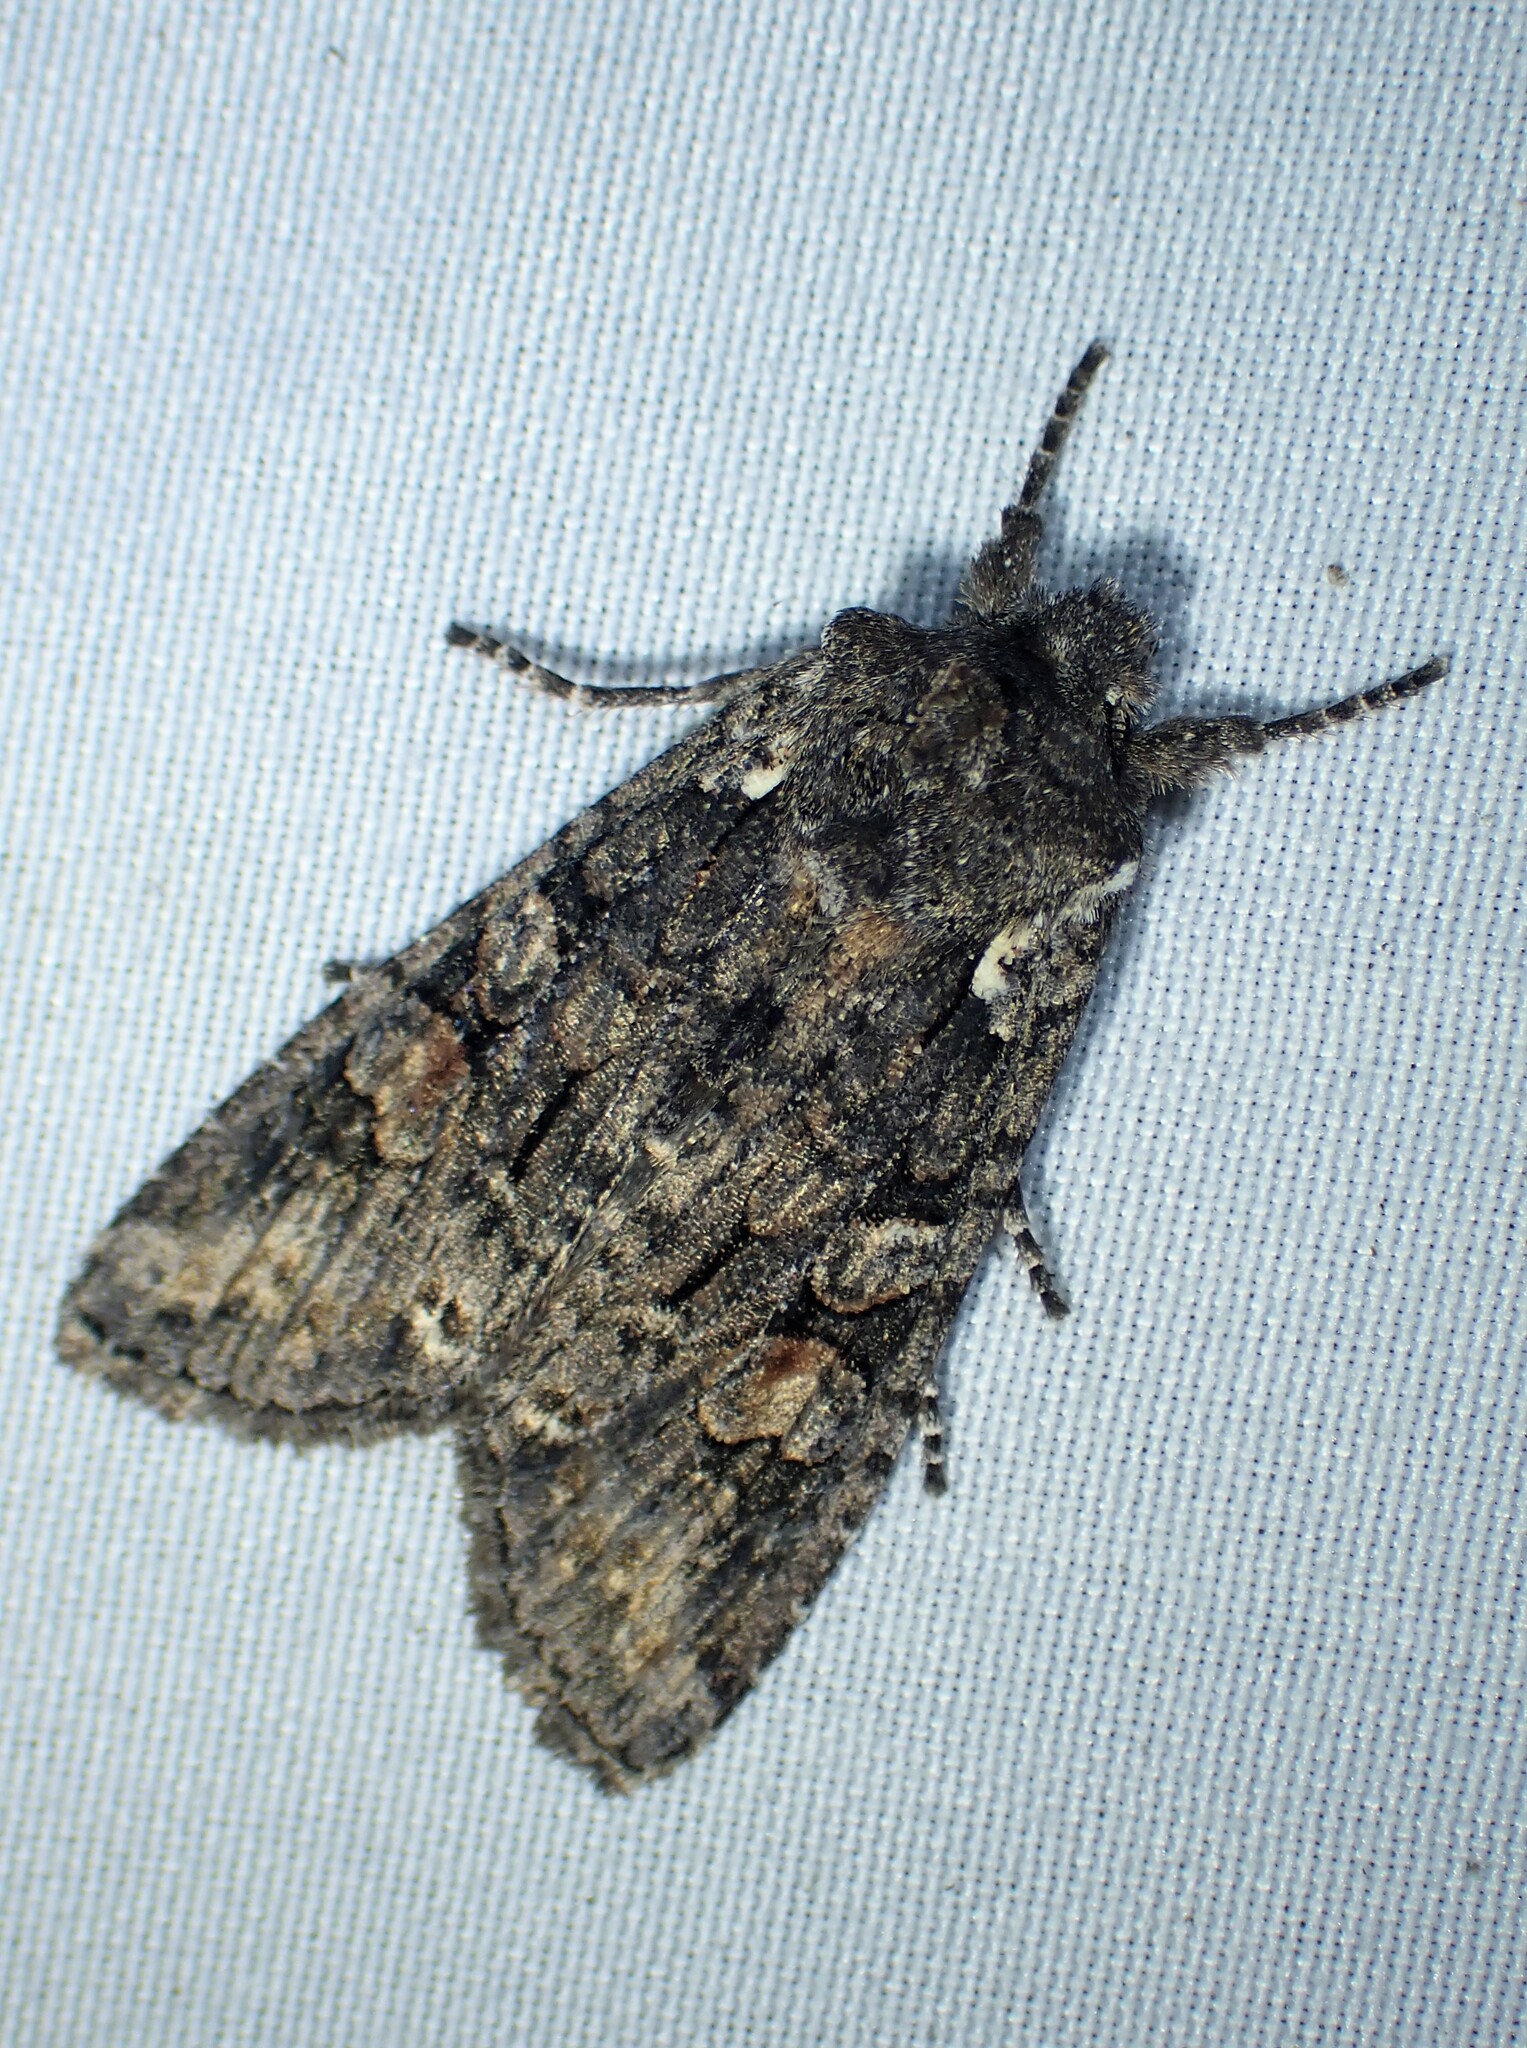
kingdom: Animalia
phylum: Arthropoda
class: Insecta
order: Lepidoptera
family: Noctuidae
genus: Lithophane
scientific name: Lithophane pexata
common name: Plush-naped pinion moth
